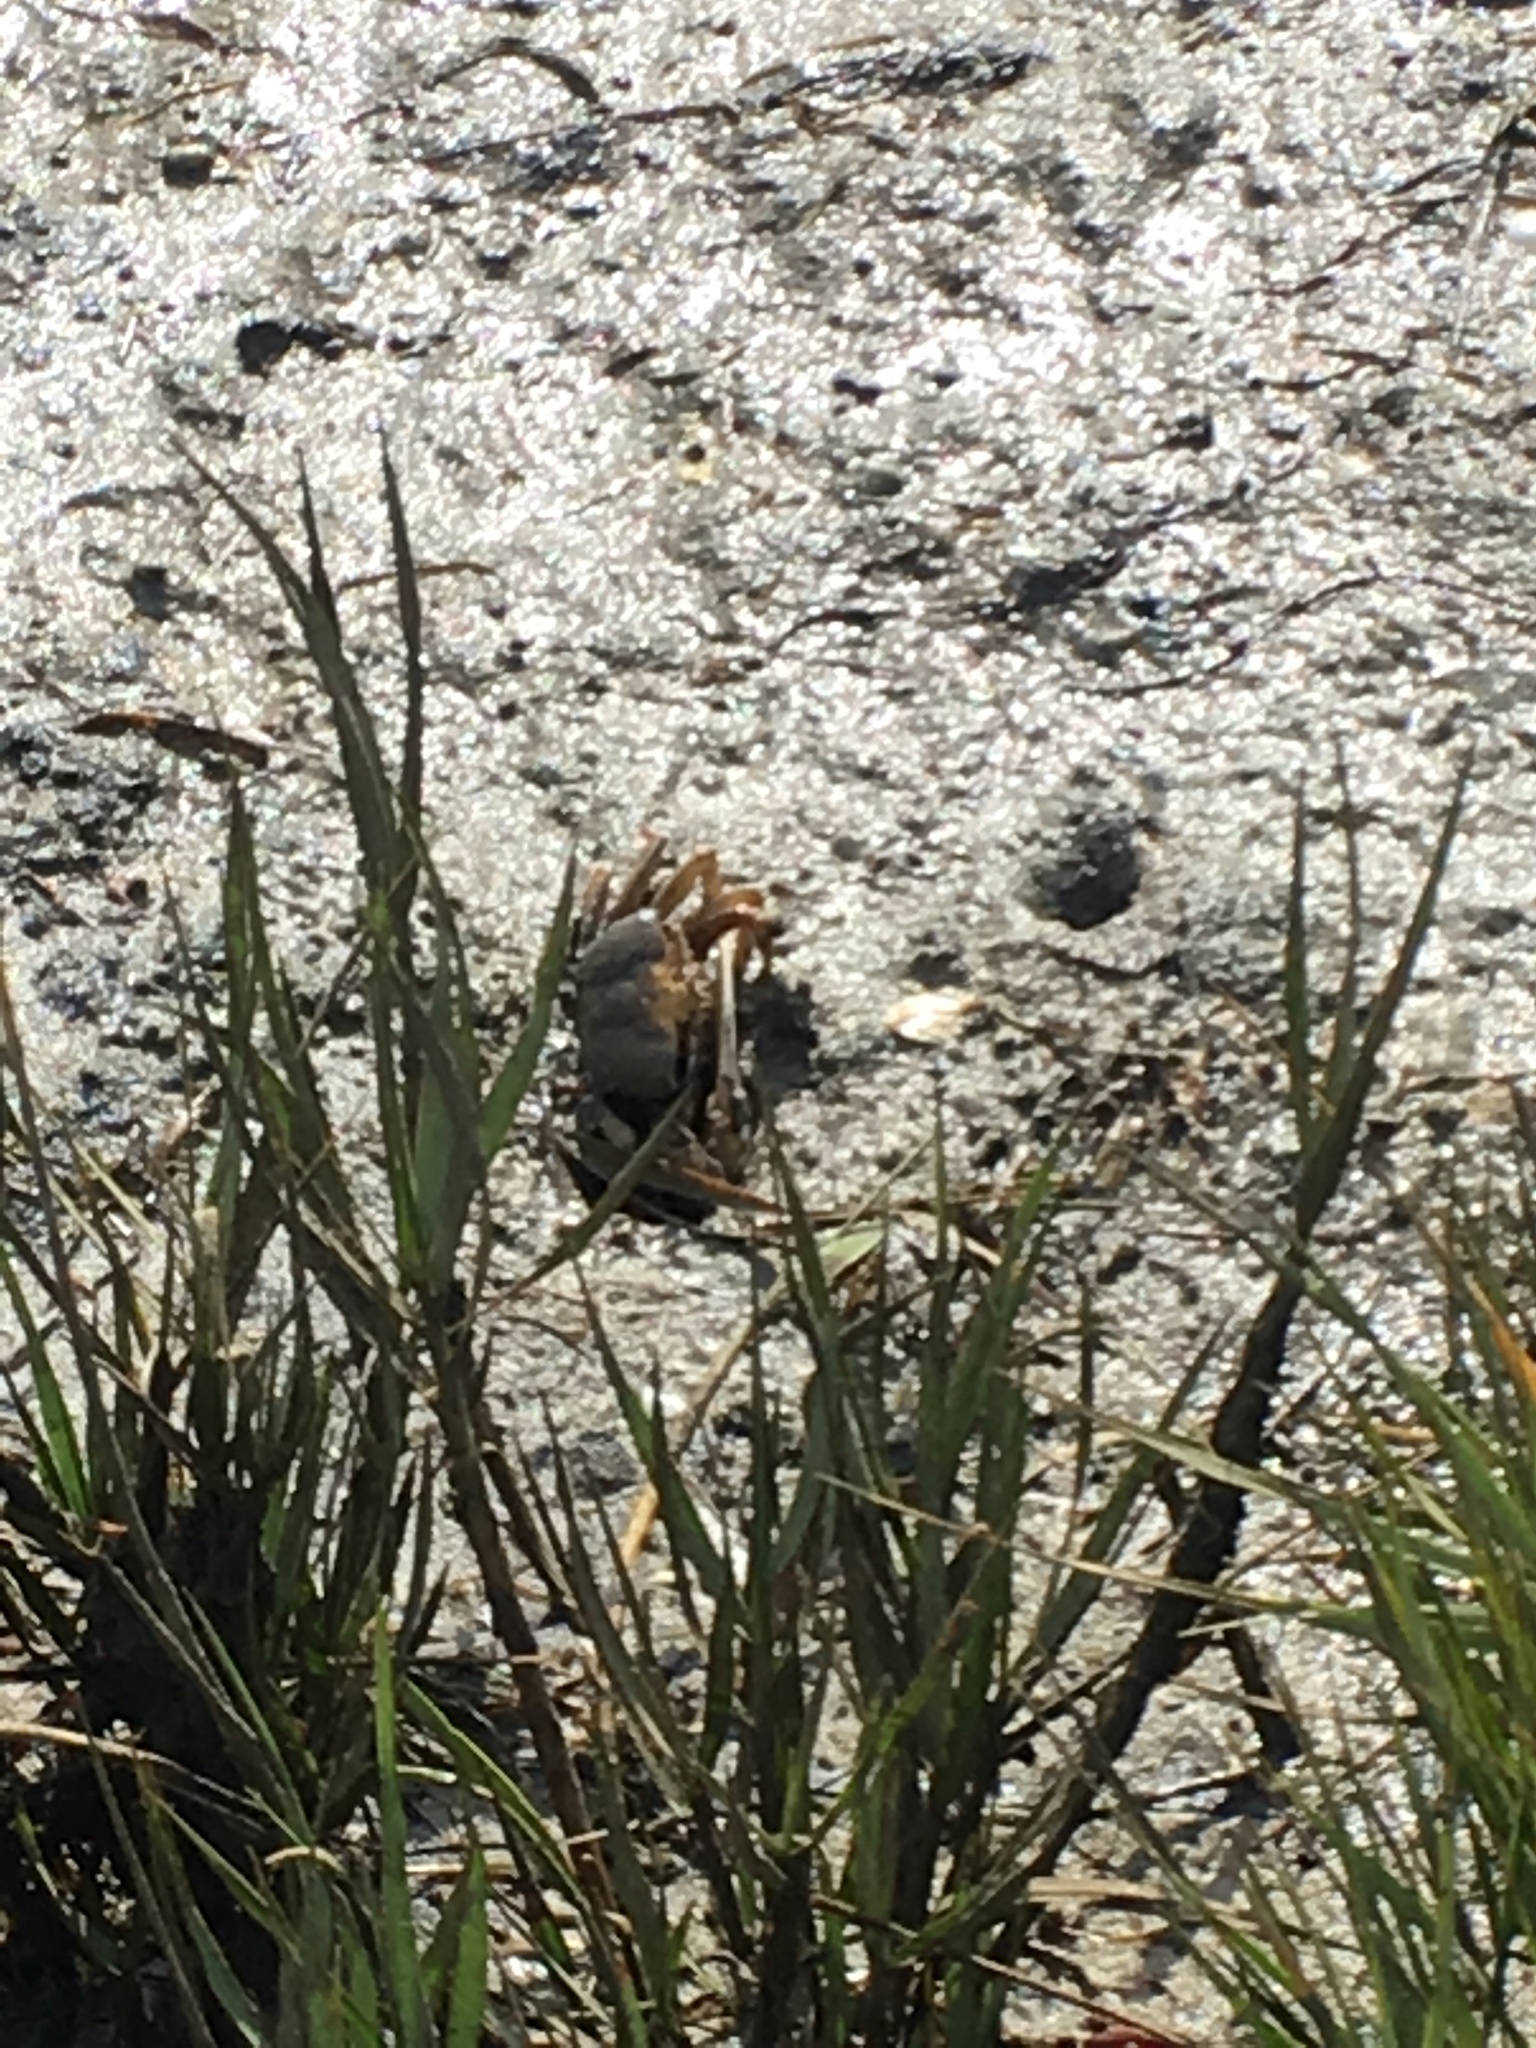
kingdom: Animalia
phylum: Arthropoda
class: Malacostraca
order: Decapoda
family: Ocypodidae
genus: Afruca
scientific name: Afruca tangeri
